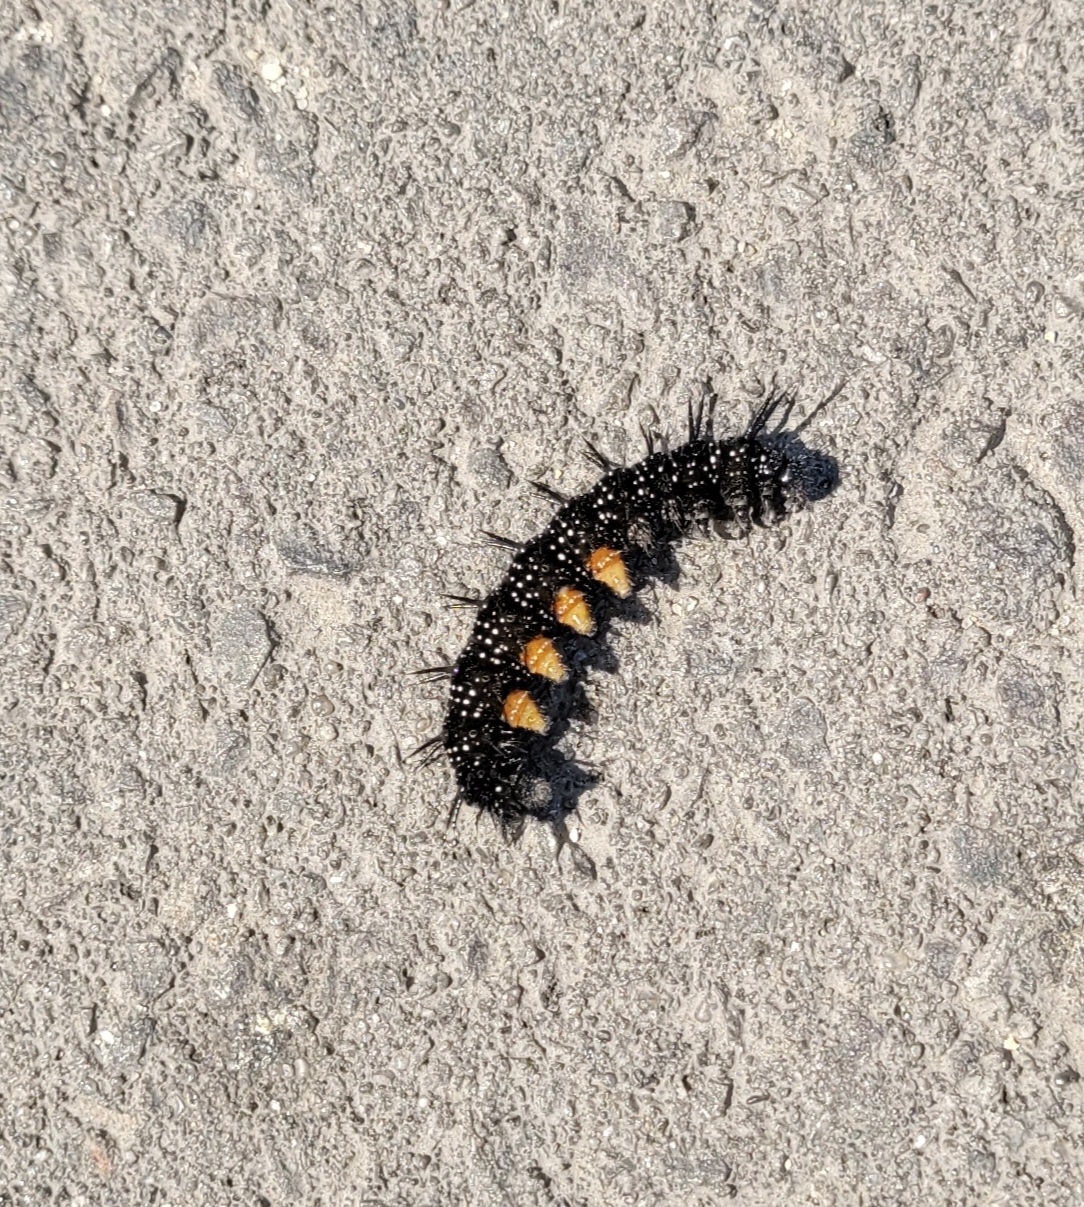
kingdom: Animalia
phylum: Arthropoda
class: Insecta
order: Lepidoptera
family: Nymphalidae
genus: Aglais
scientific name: Aglais io
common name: Peacock
